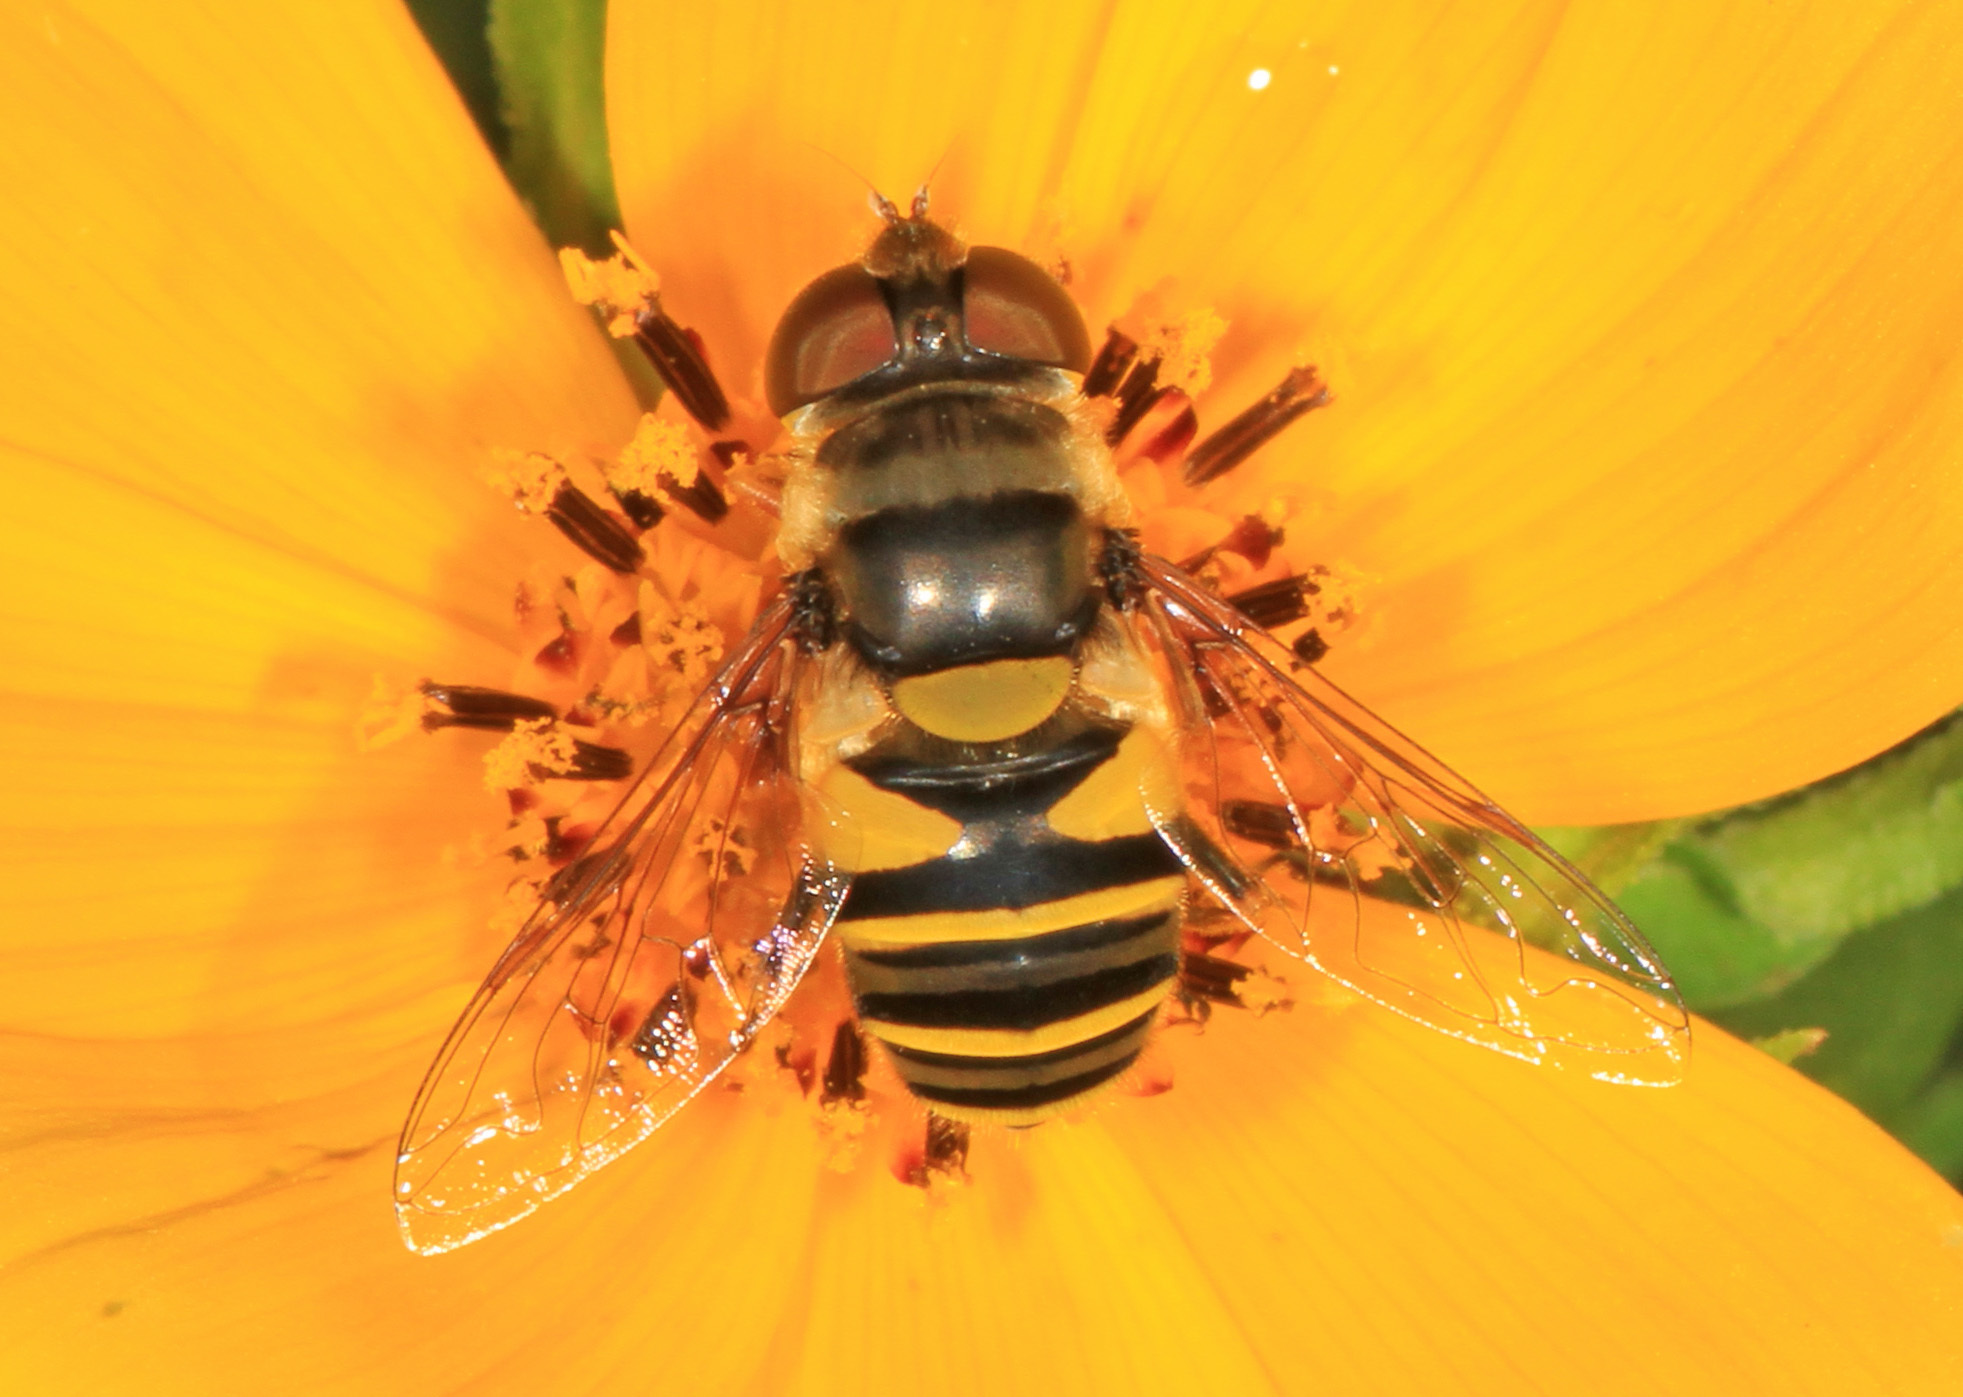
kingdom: Animalia
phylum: Arthropoda
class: Insecta
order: Diptera
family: Syrphidae
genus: Eristalis
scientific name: Eristalis transversa
